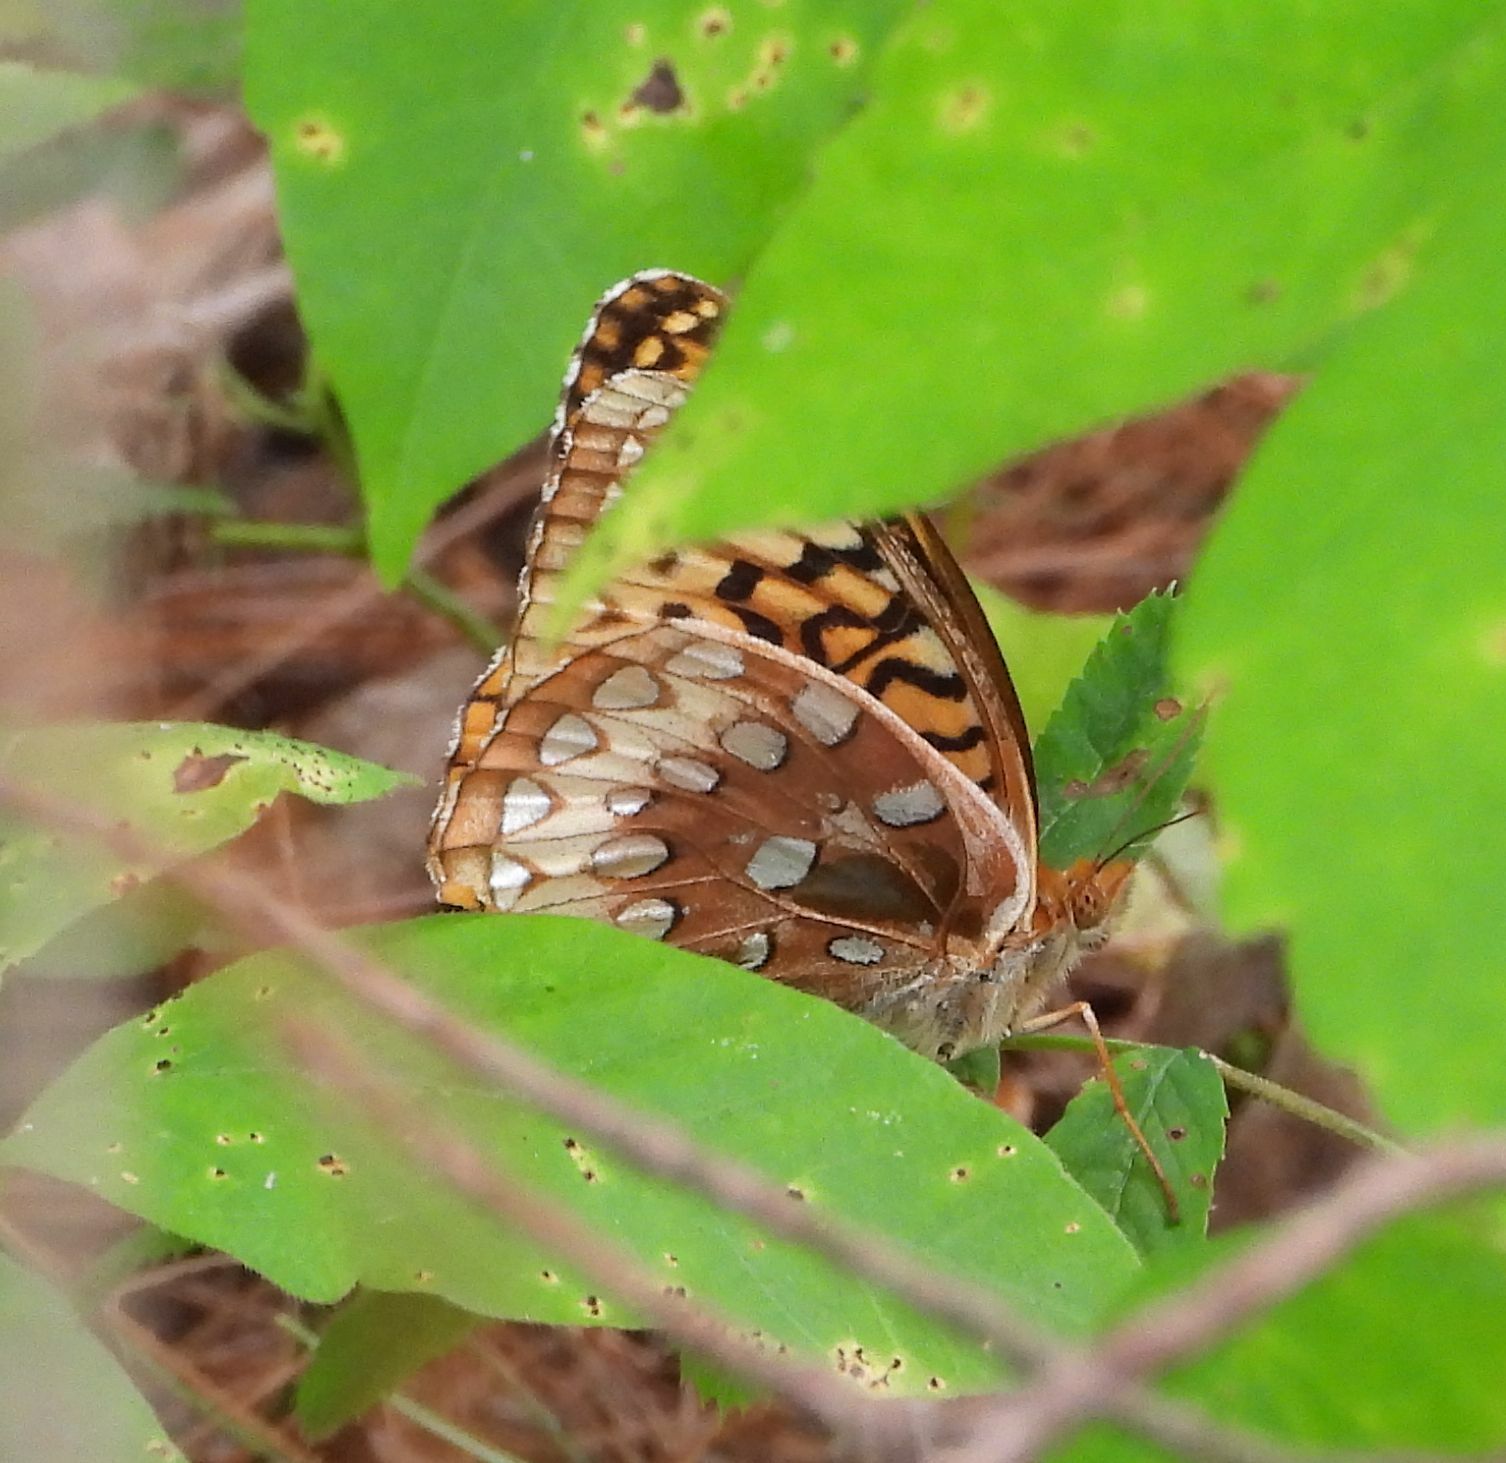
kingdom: Animalia
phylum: Arthropoda
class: Insecta
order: Lepidoptera
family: Nymphalidae
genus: Speyeria
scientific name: Speyeria cybele
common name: Great spangled fritillary
